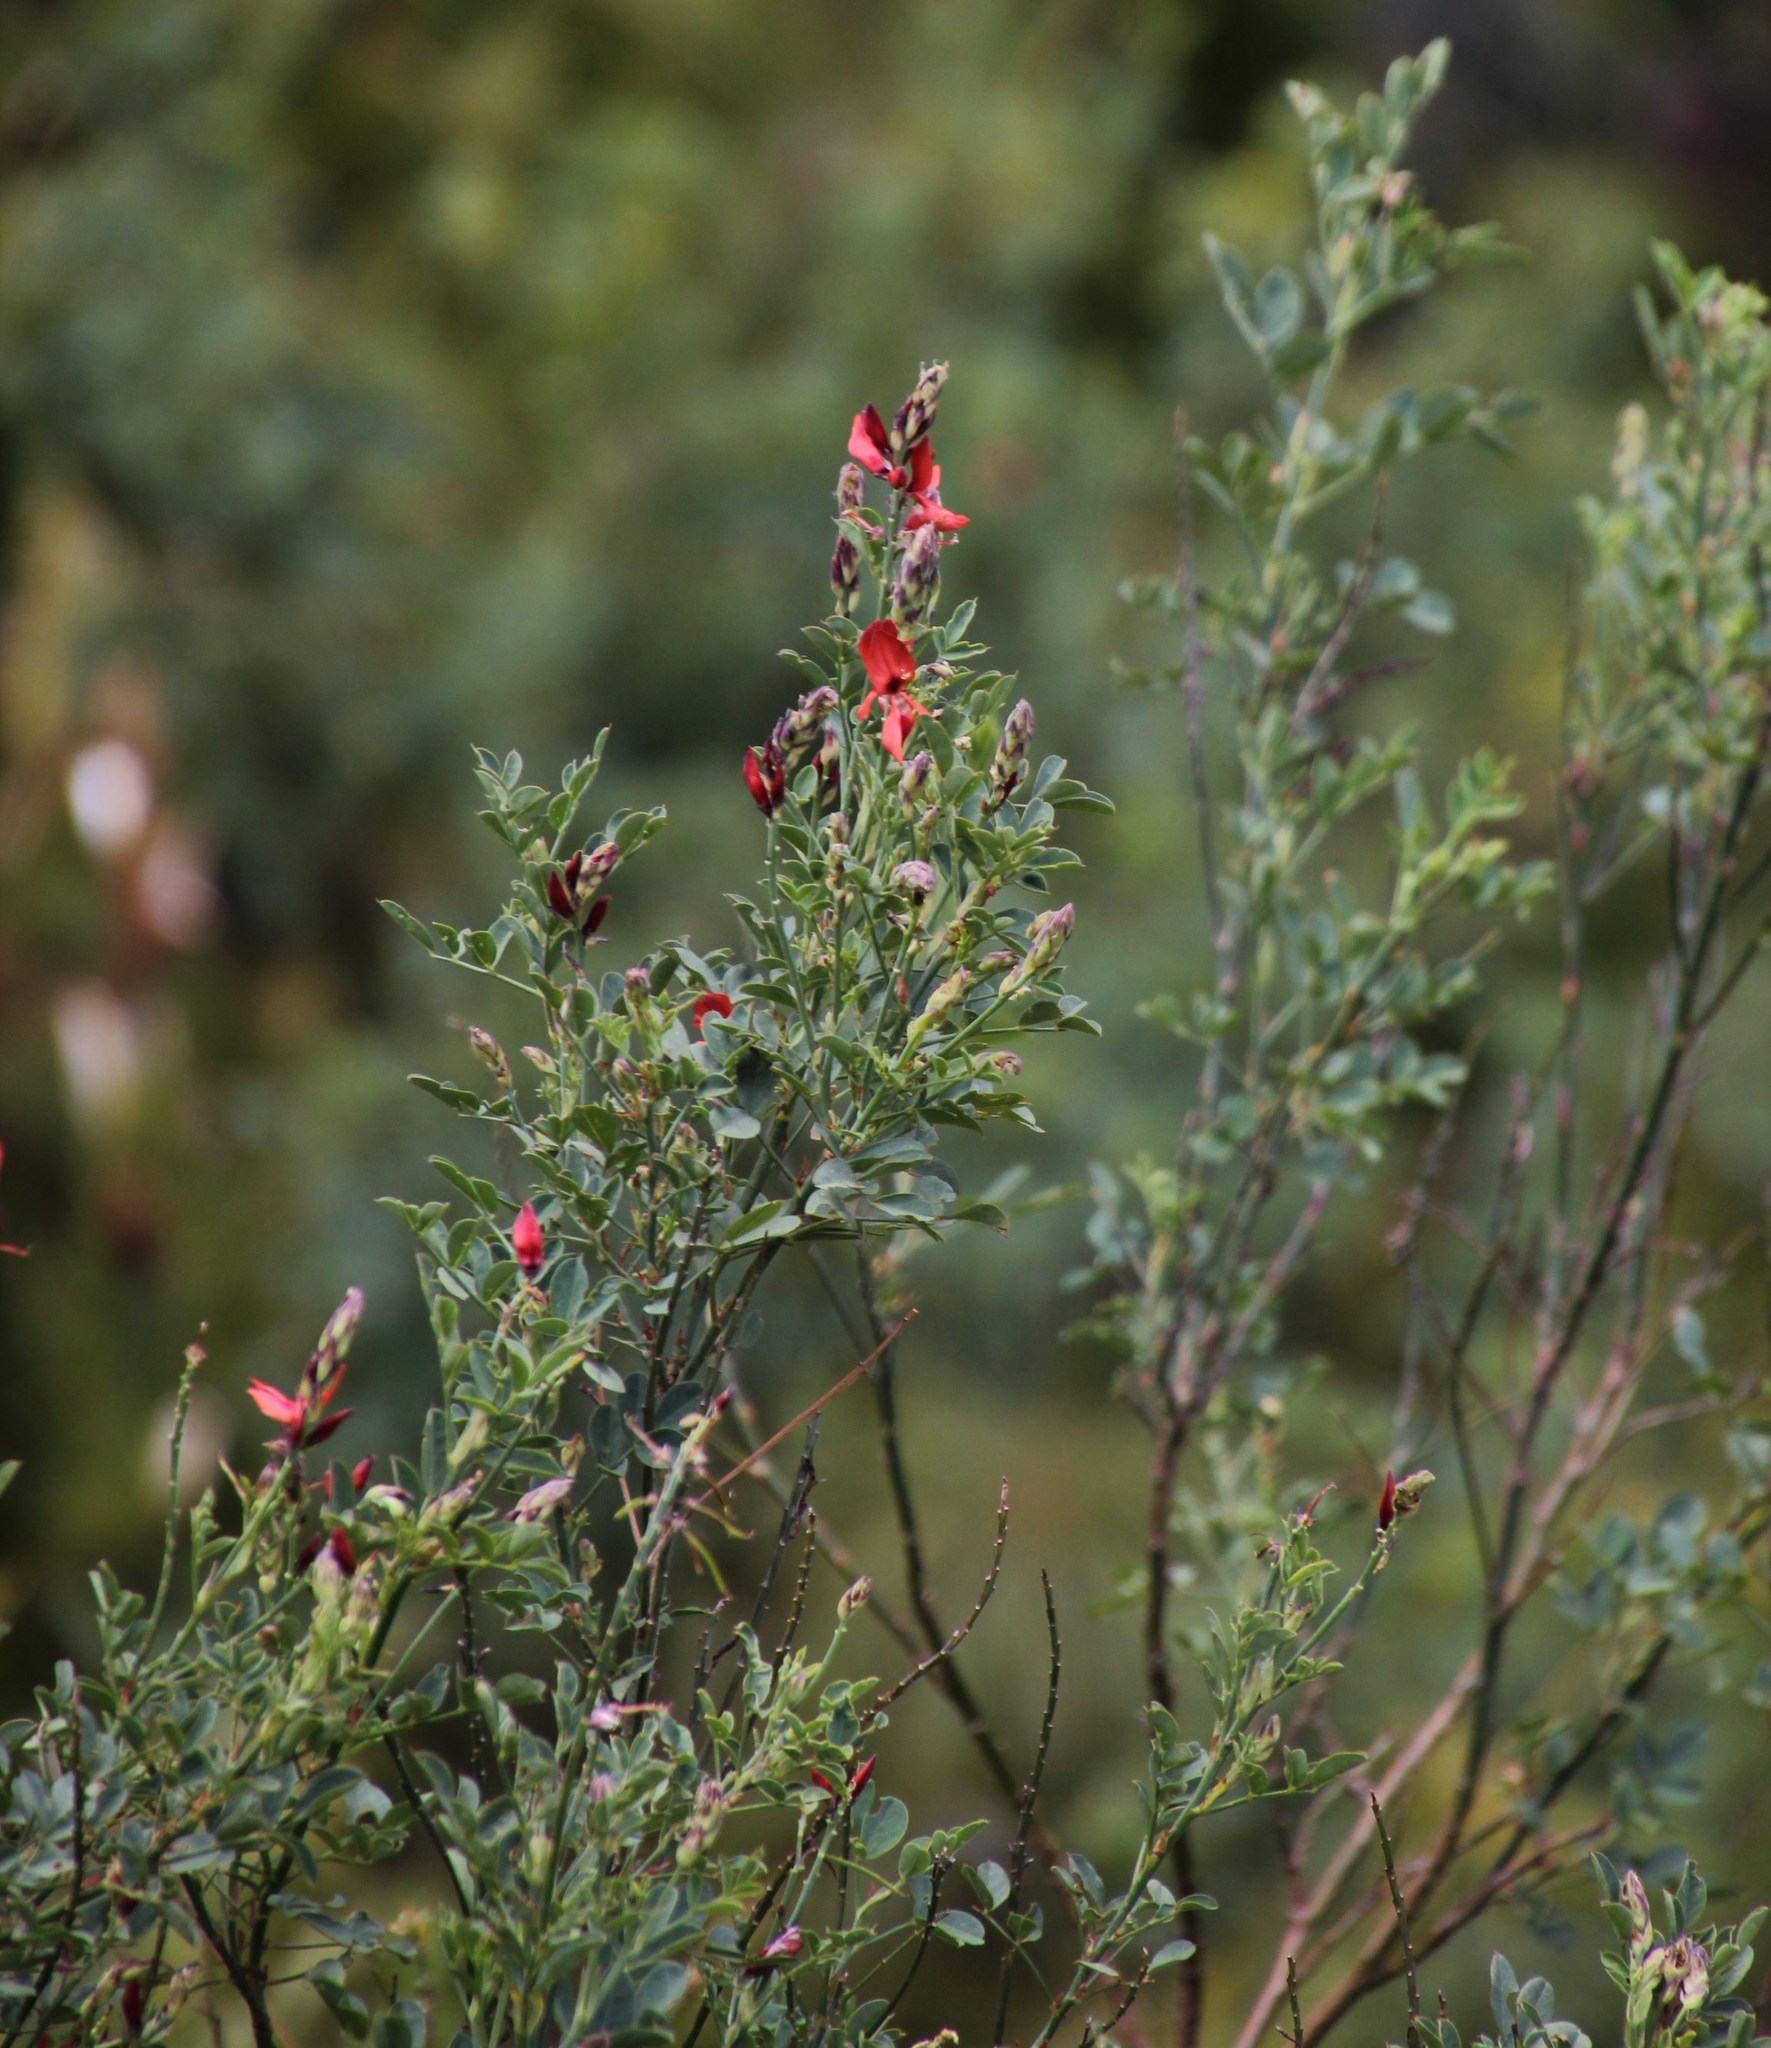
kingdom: Plantae
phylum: Tracheophyta
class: Magnoliopsida
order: Fabales
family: Fabaceae
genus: Indigofera
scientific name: Indigofera fulcrata
